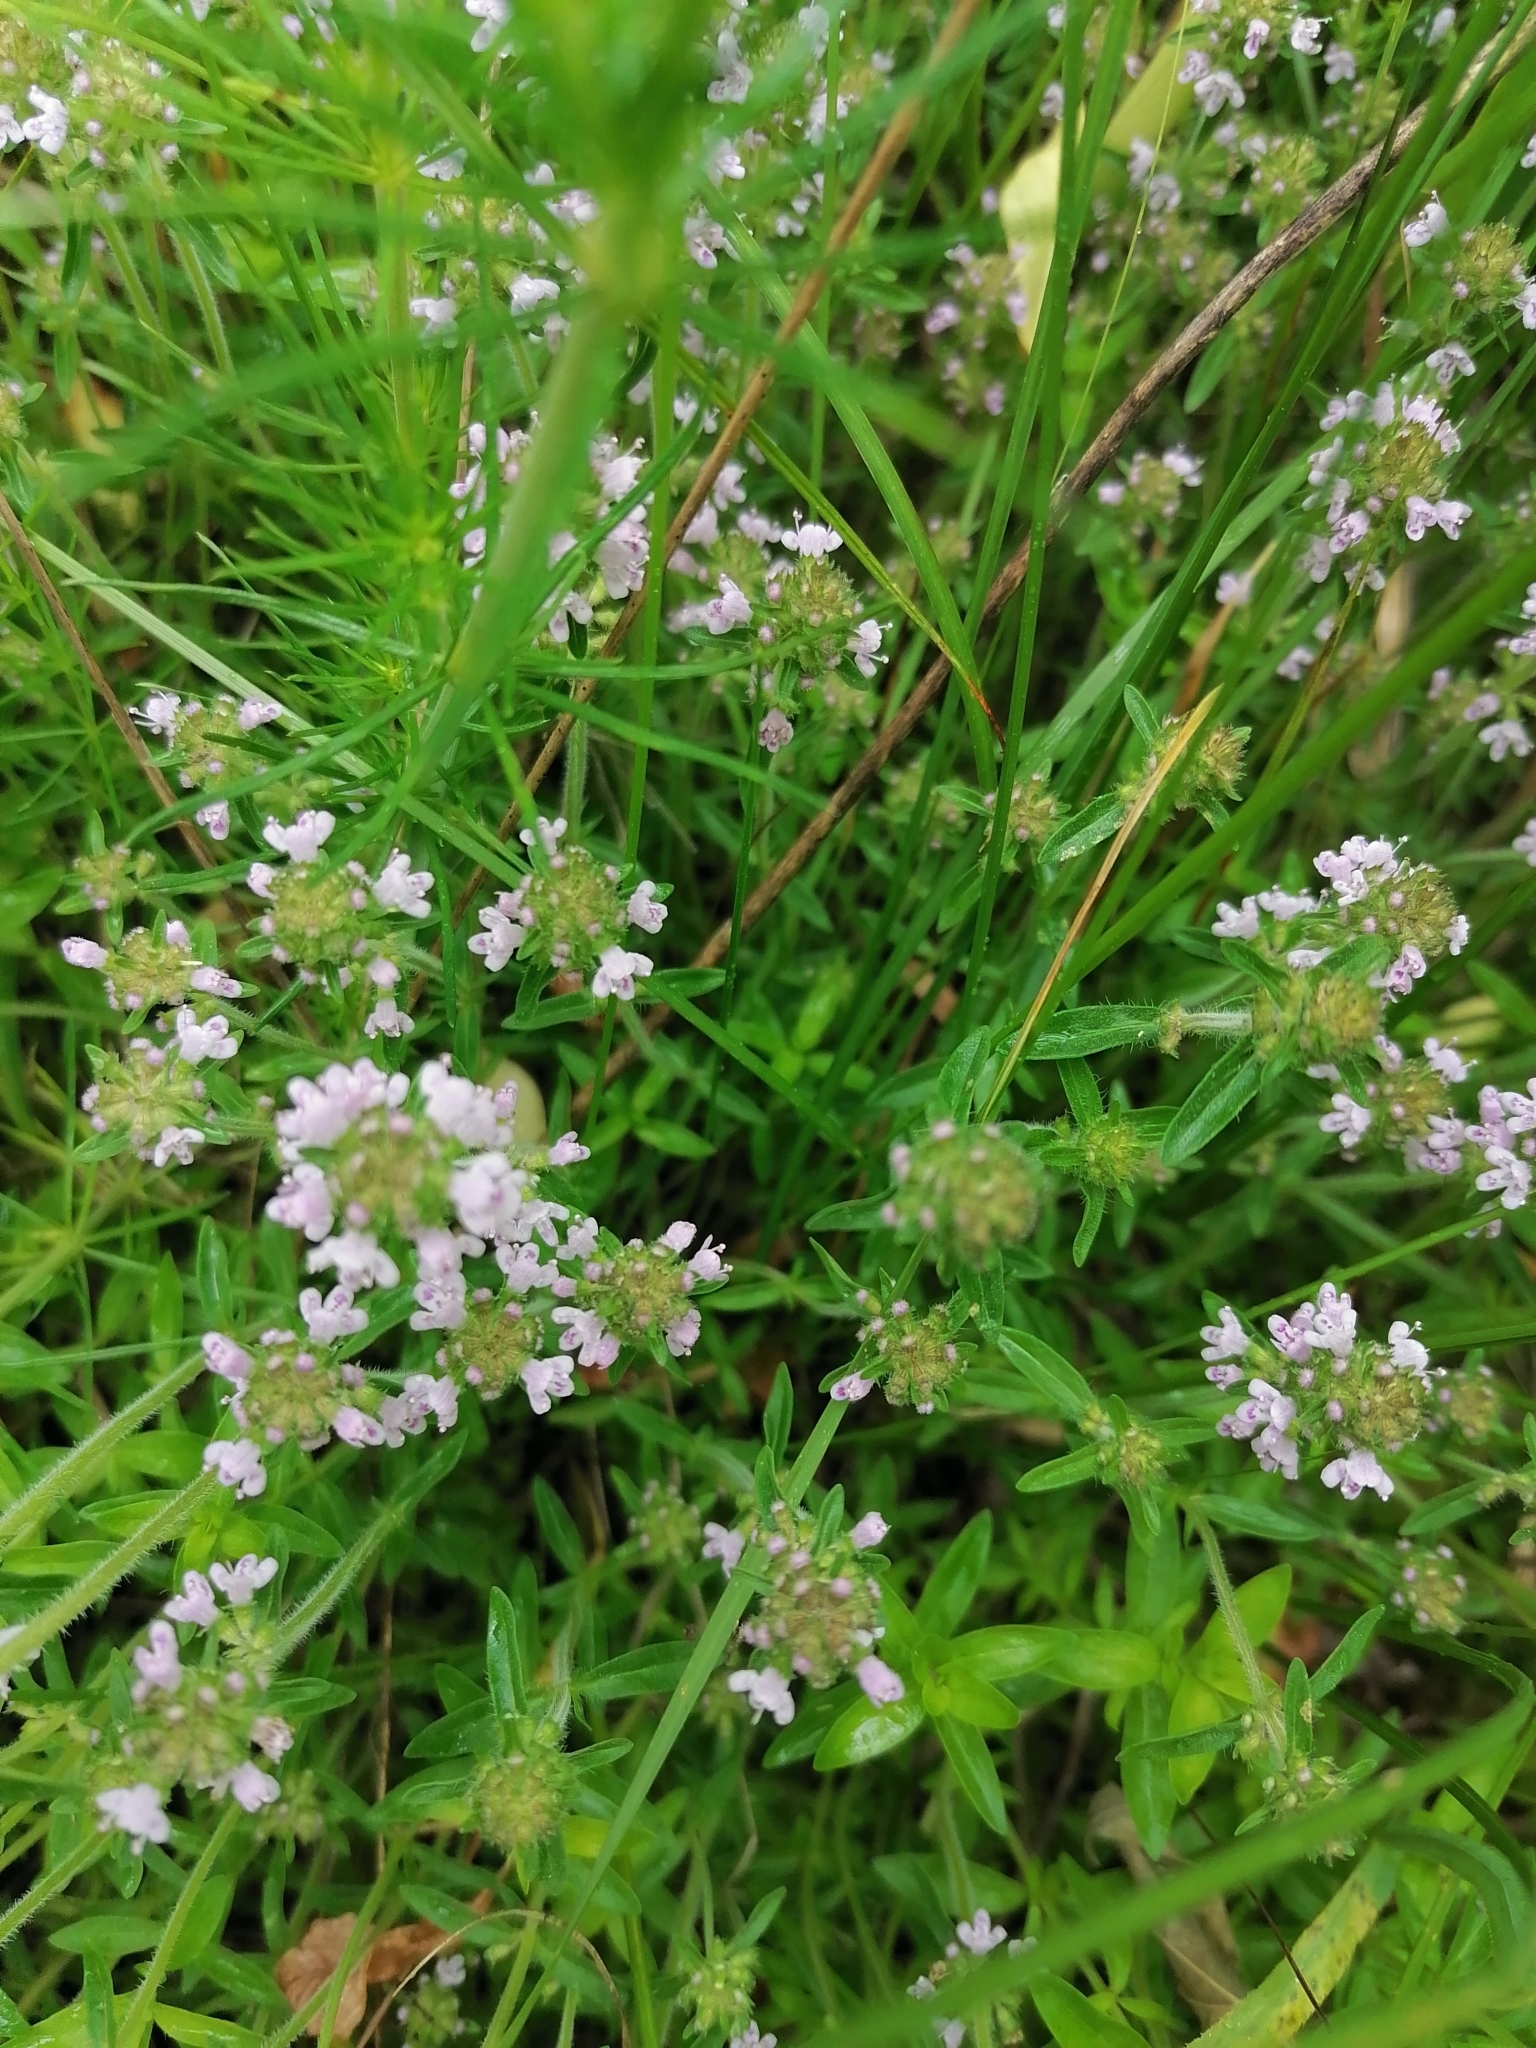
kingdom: Plantae
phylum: Tracheophyta
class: Magnoliopsida
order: Lamiales
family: Lamiaceae
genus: Thymus
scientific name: Thymus pannonicus
